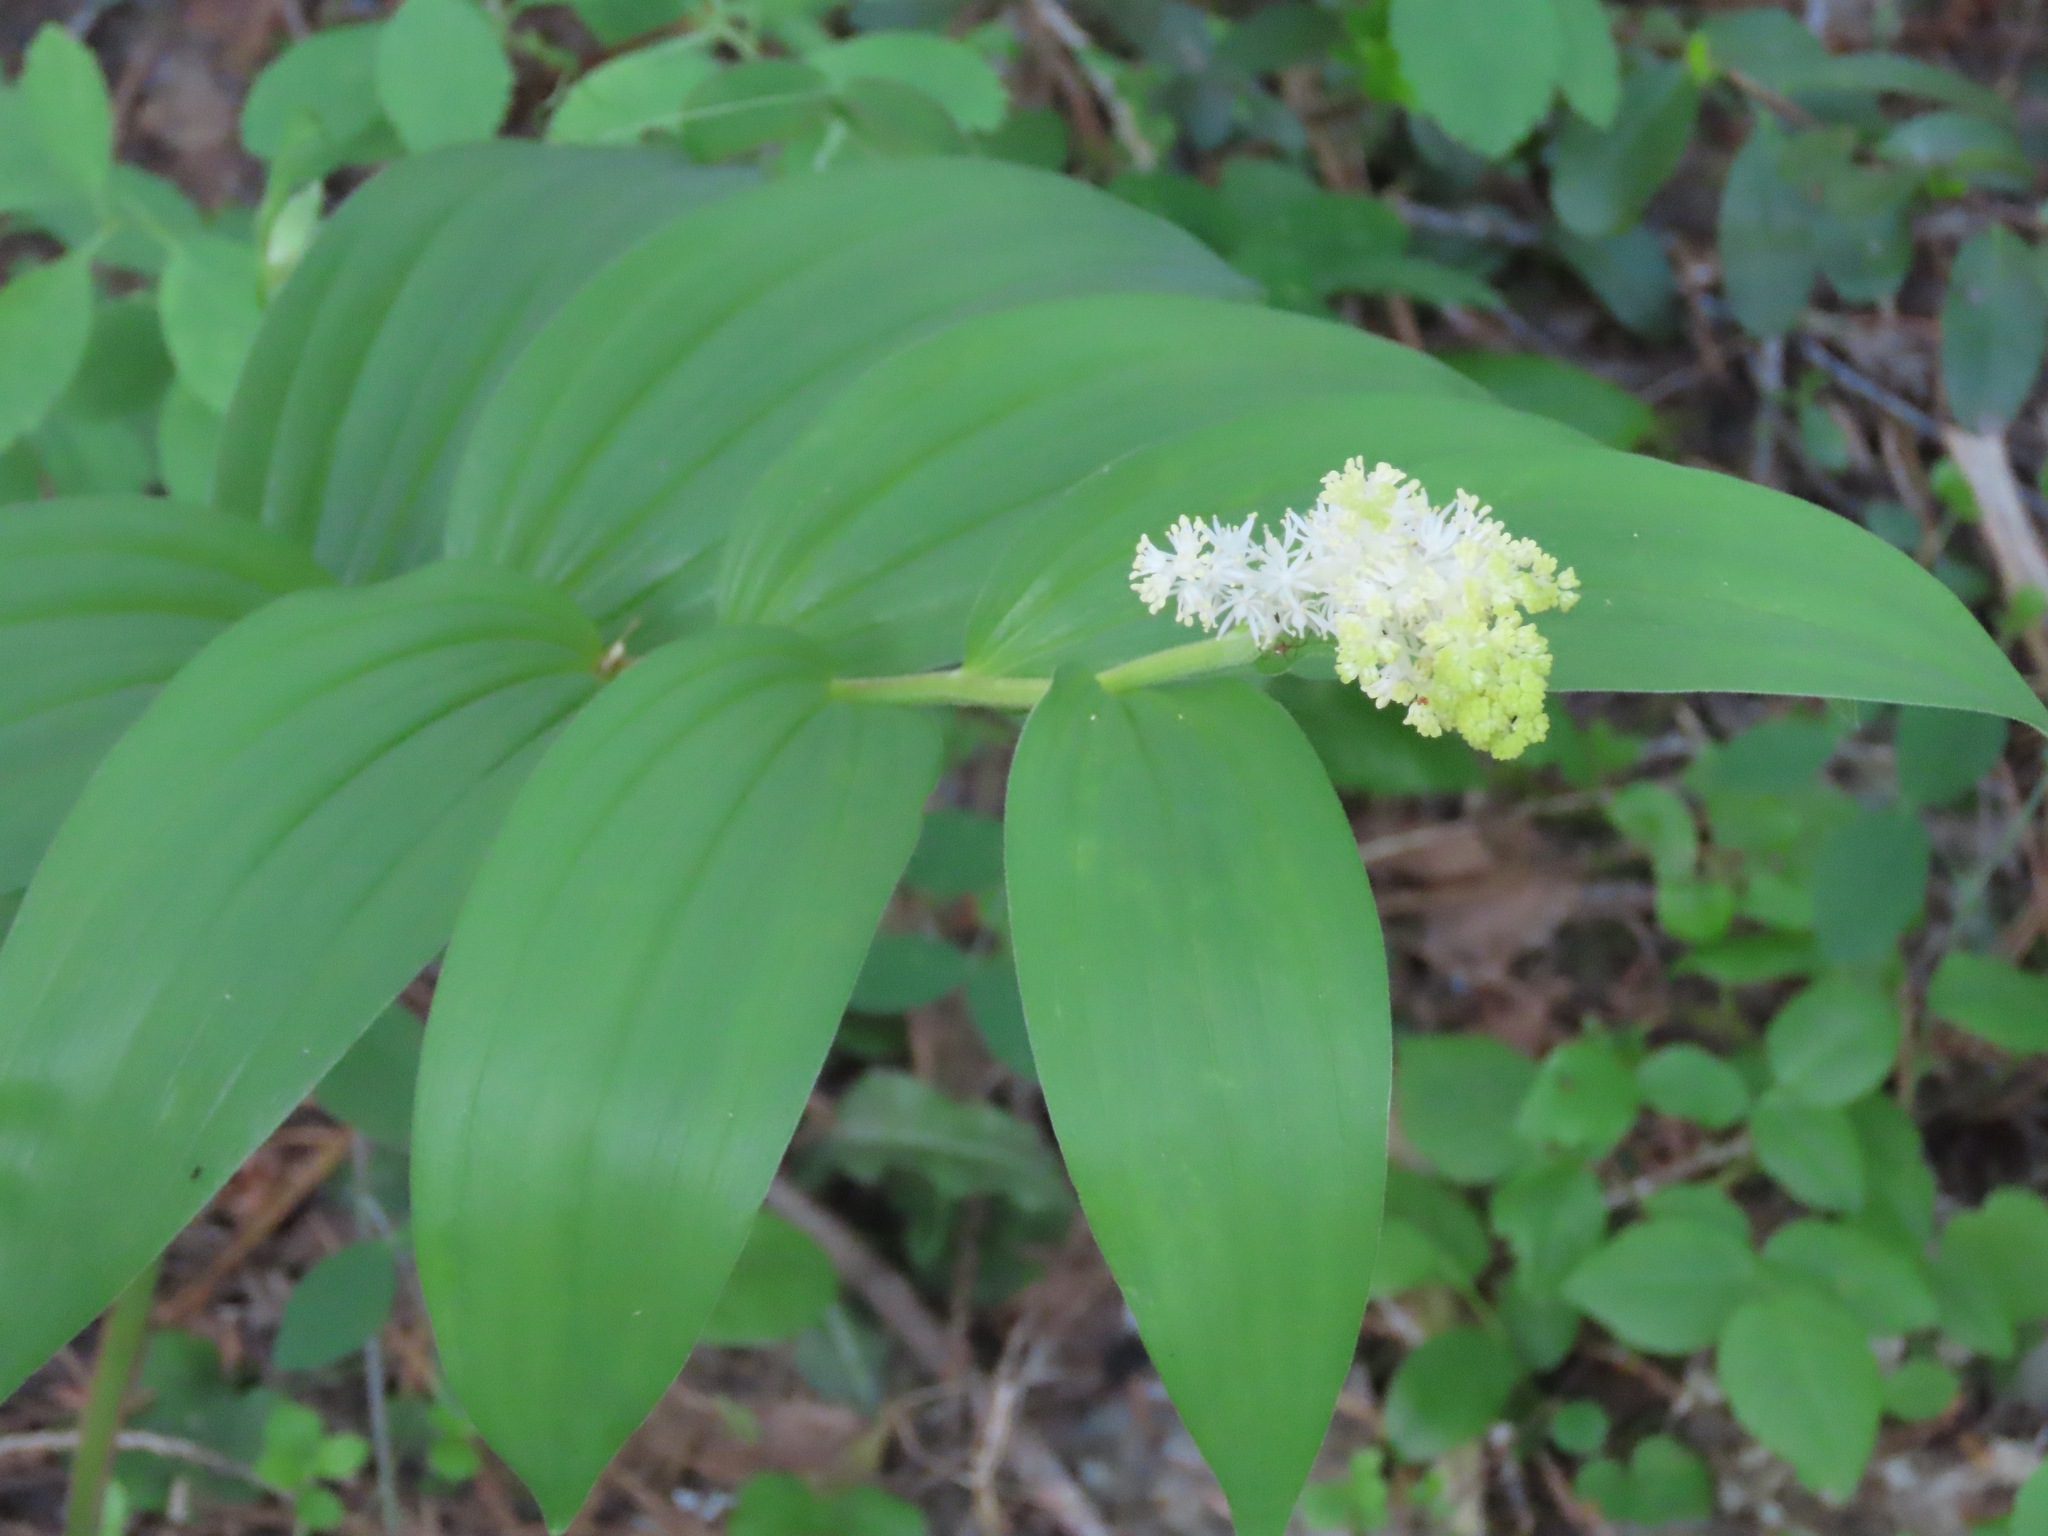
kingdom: Plantae
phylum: Tracheophyta
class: Liliopsida
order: Asparagales
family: Asparagaceae
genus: Maianthemum
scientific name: Maianthemum racemosum
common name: False spikenard
